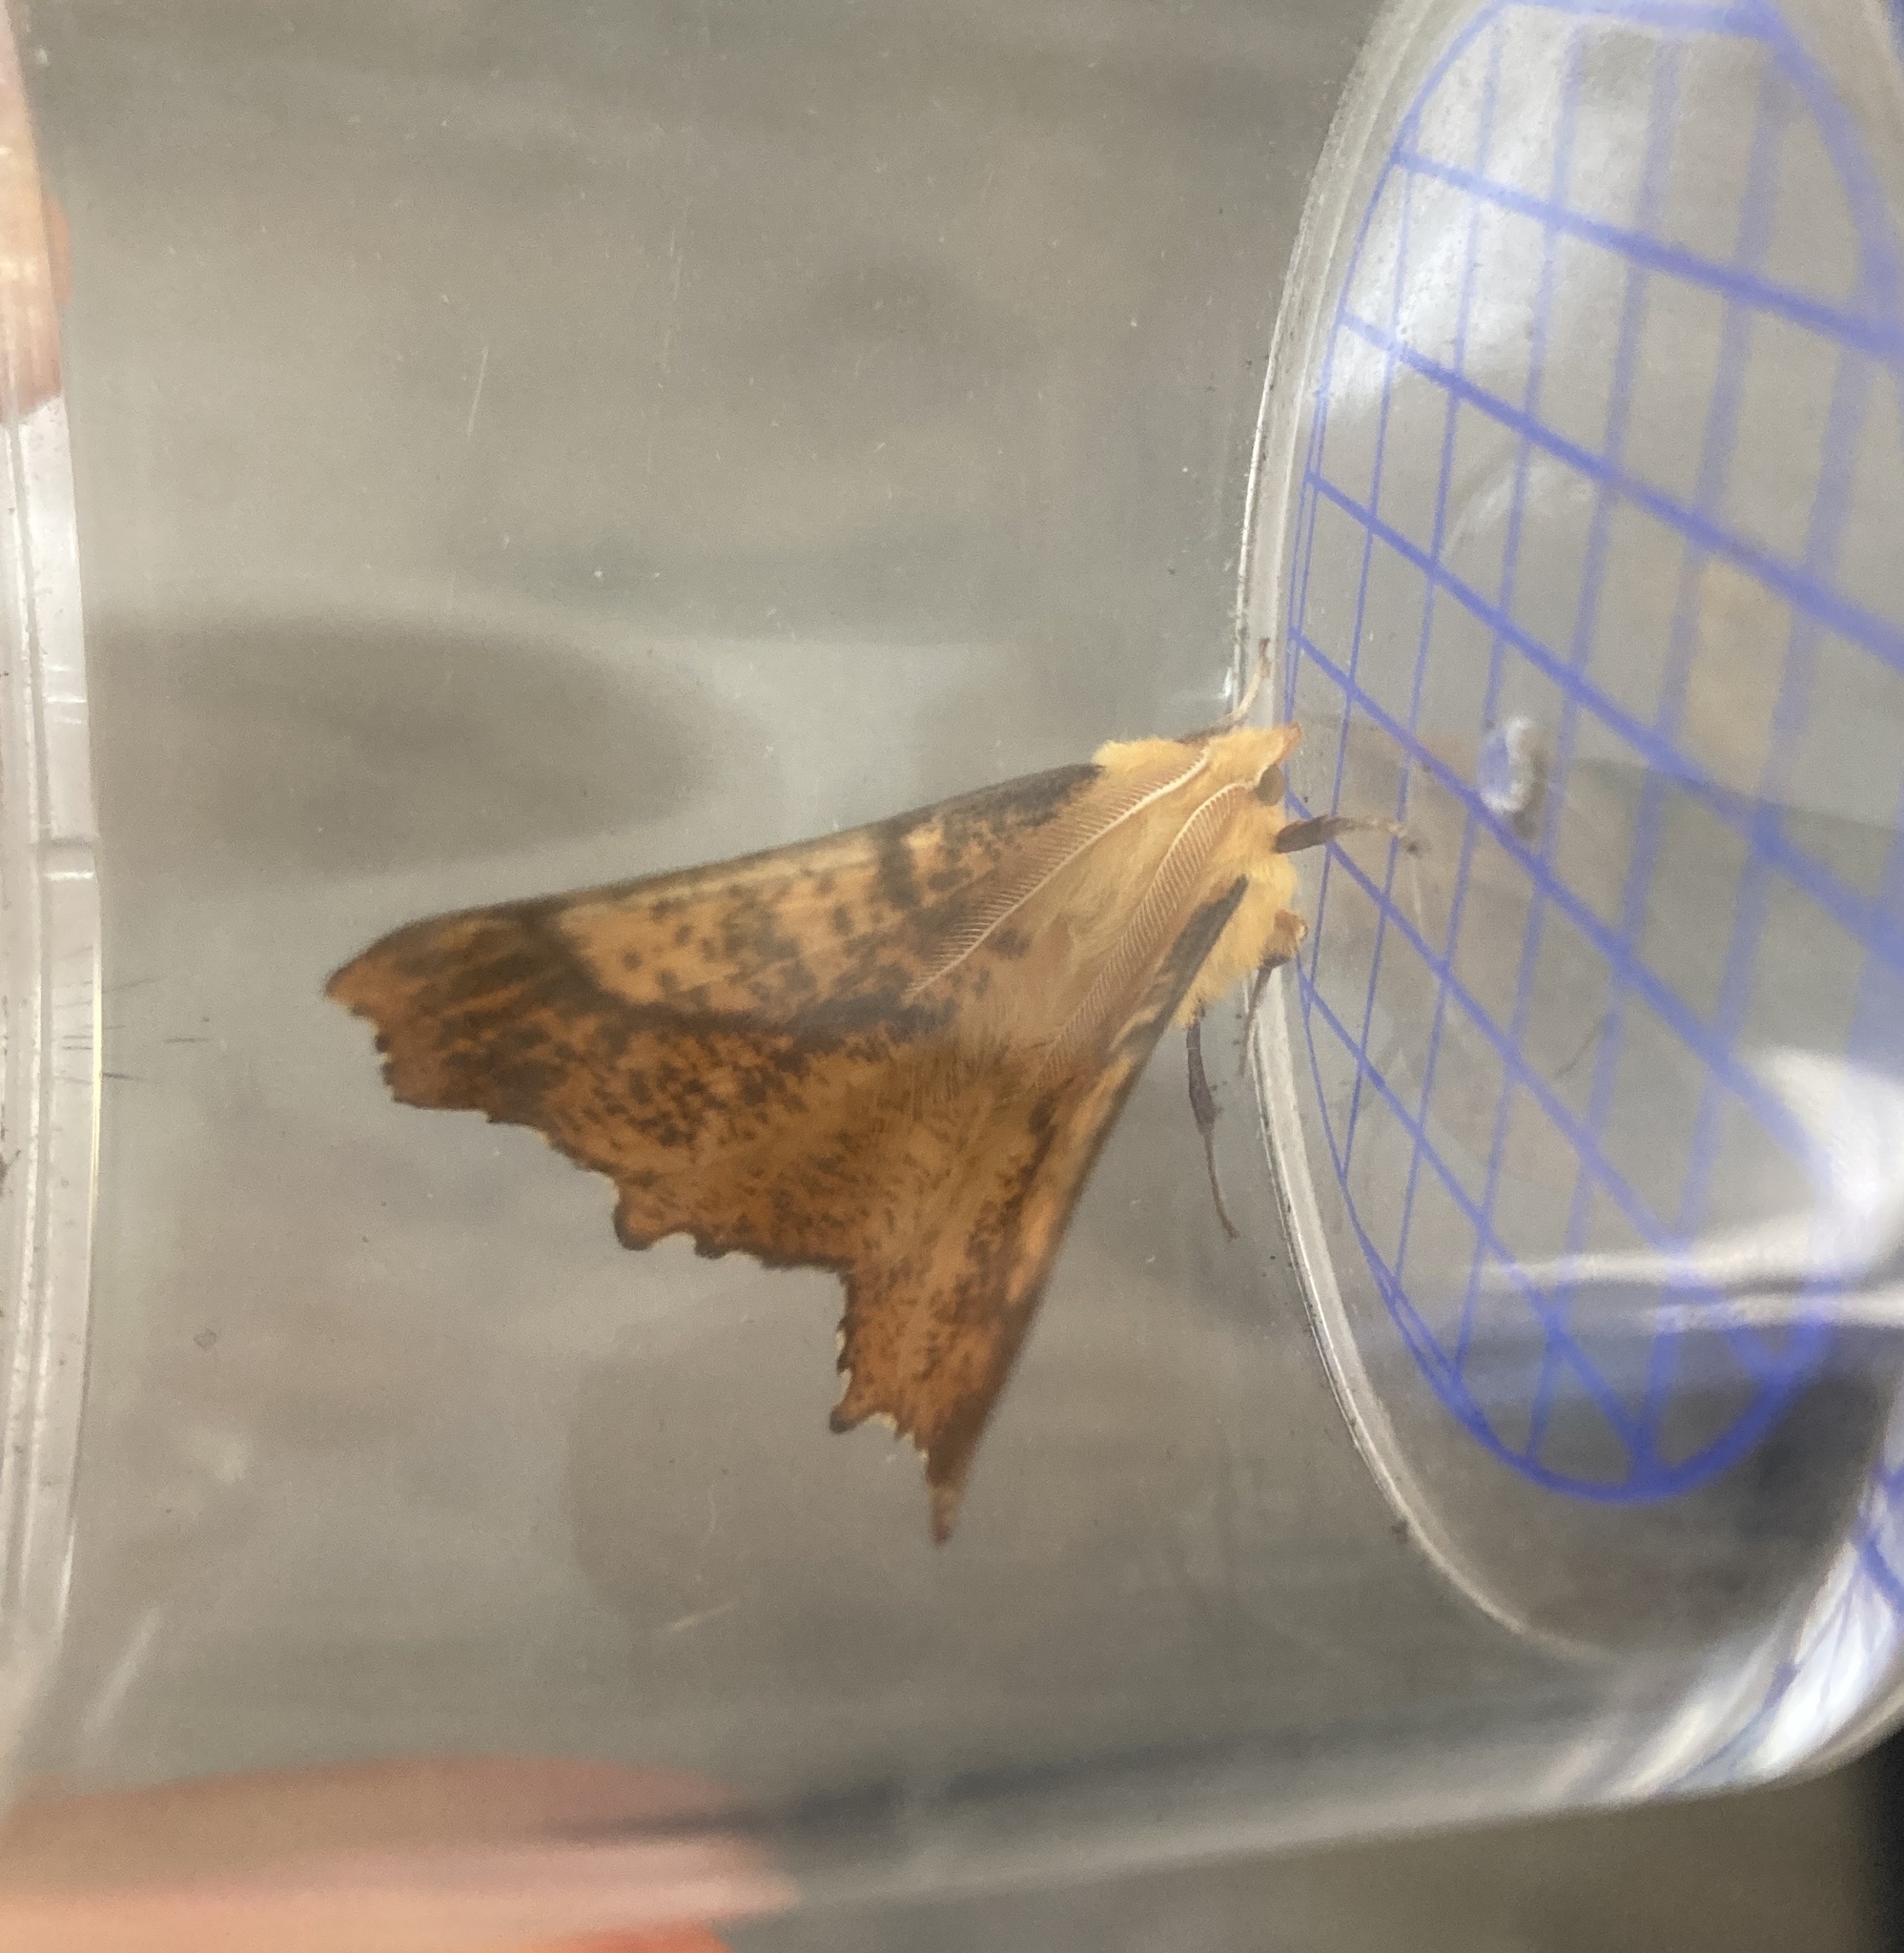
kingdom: Animalia
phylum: Arthropoda
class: Insecta
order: Lepidoptera
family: Geometridae
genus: Ennomos
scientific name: Ennomos autumnaria
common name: Large thorn
